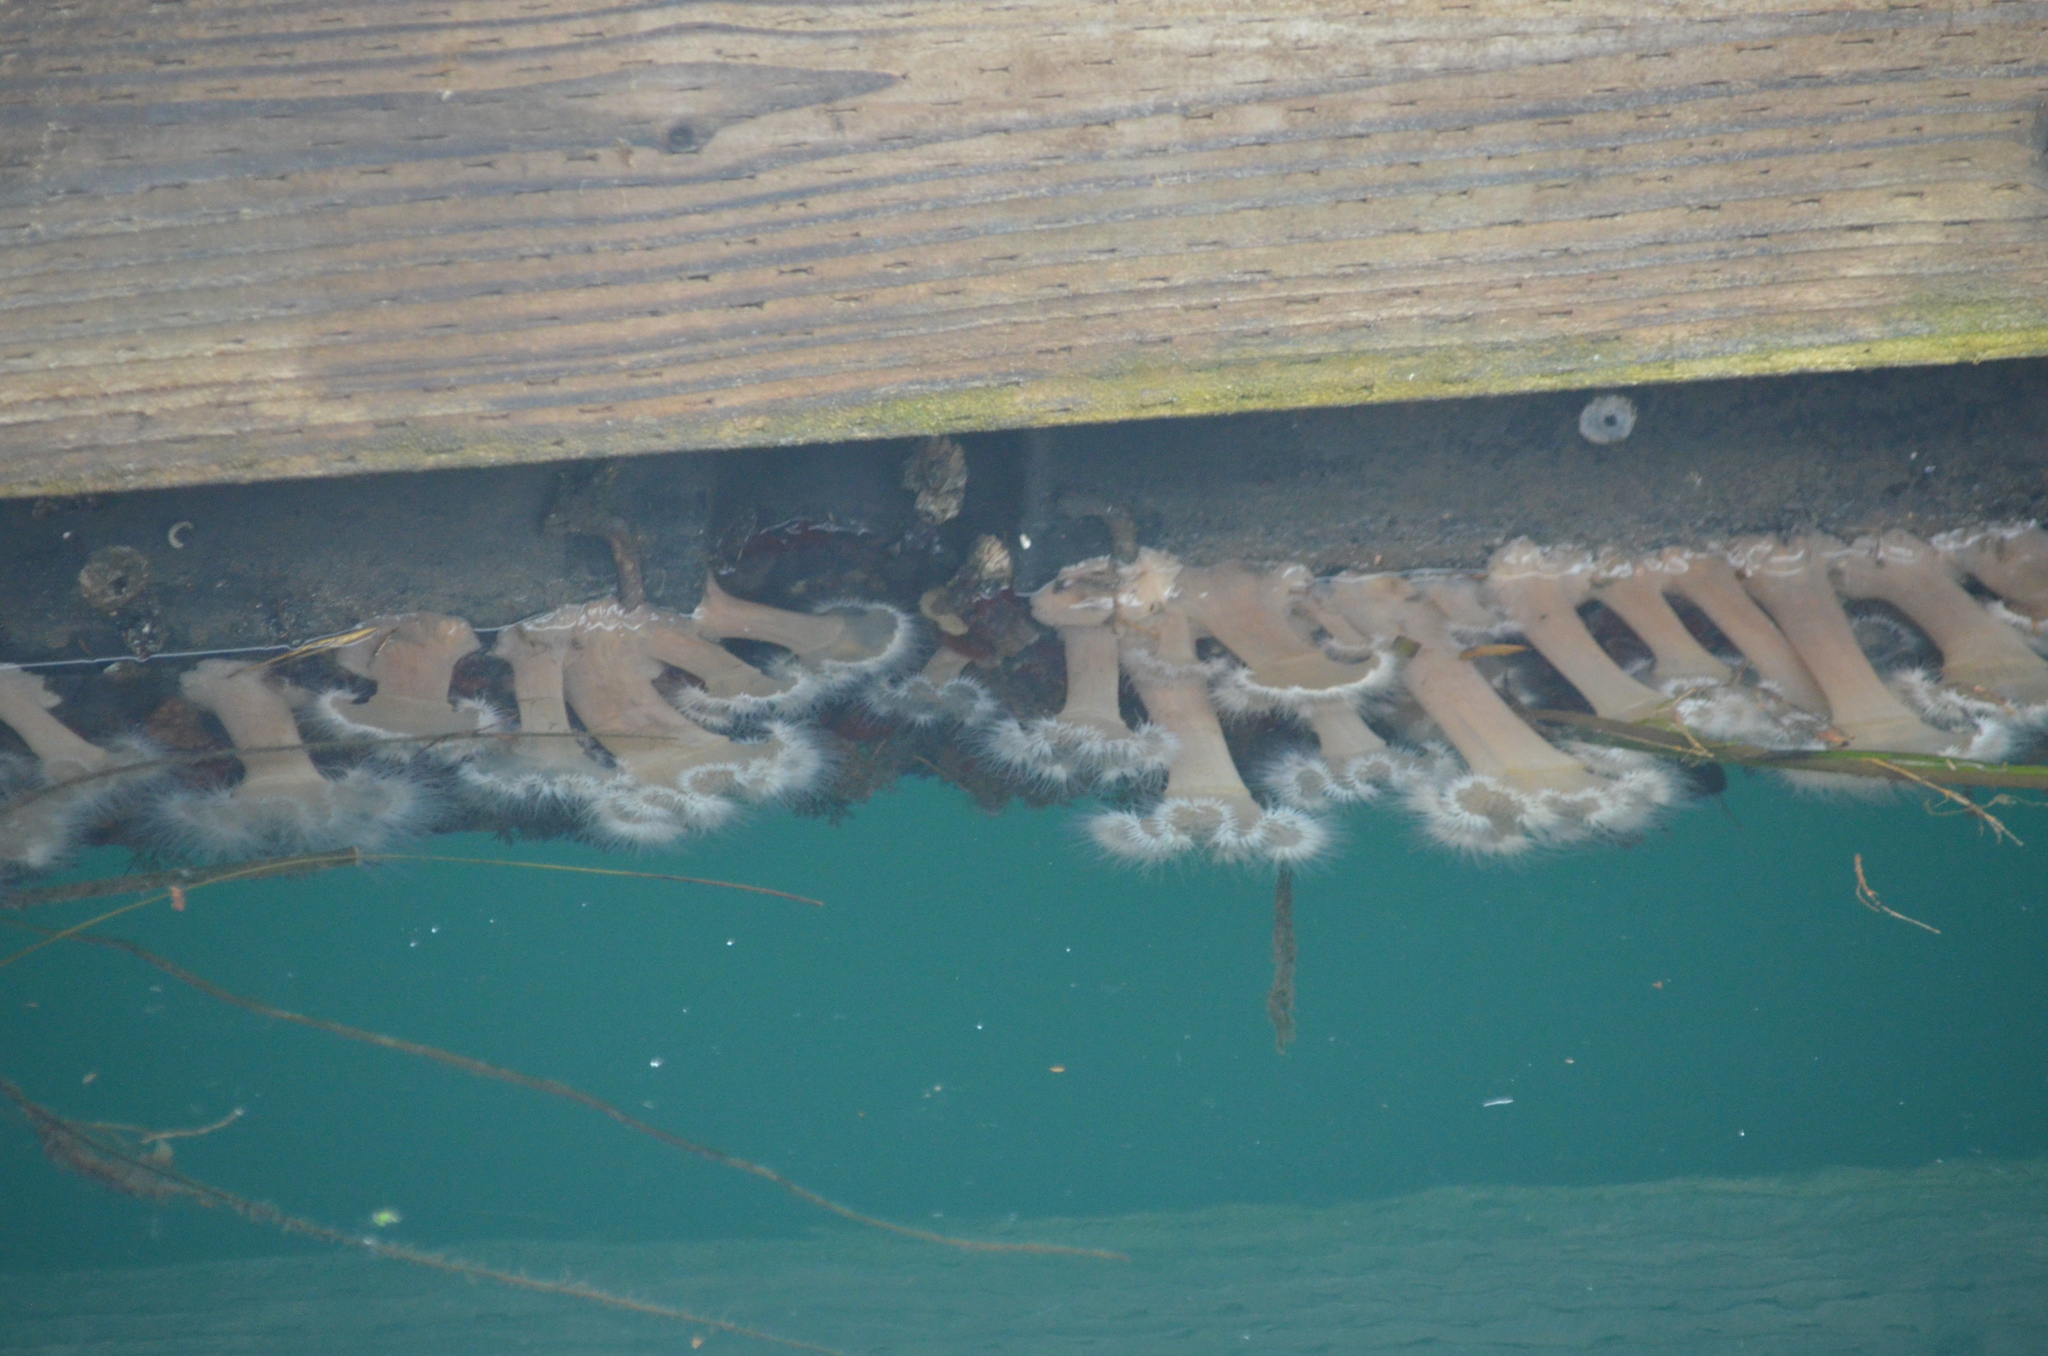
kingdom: Animalia
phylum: Cnidaria
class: Anthozoa
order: Actiniaria
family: Metridiidae
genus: Metridium
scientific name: Metridium senile
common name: Clonal plumose anemone
